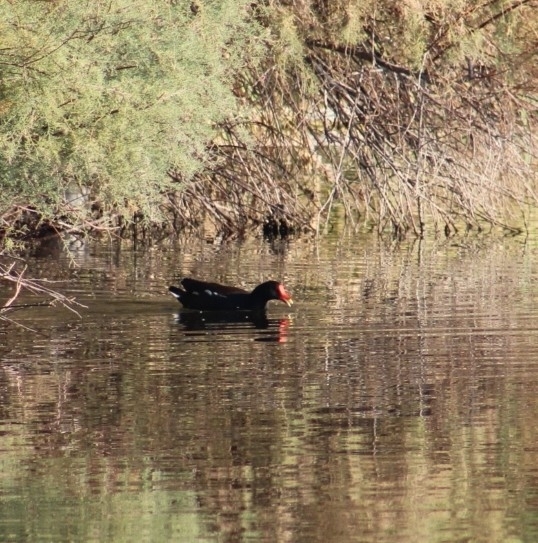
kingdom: Animalia
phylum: Chordata
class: Aves
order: Gruiformes
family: Rallidae
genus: Gallinula
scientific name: Gallinula chloropus
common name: Common moorhen
